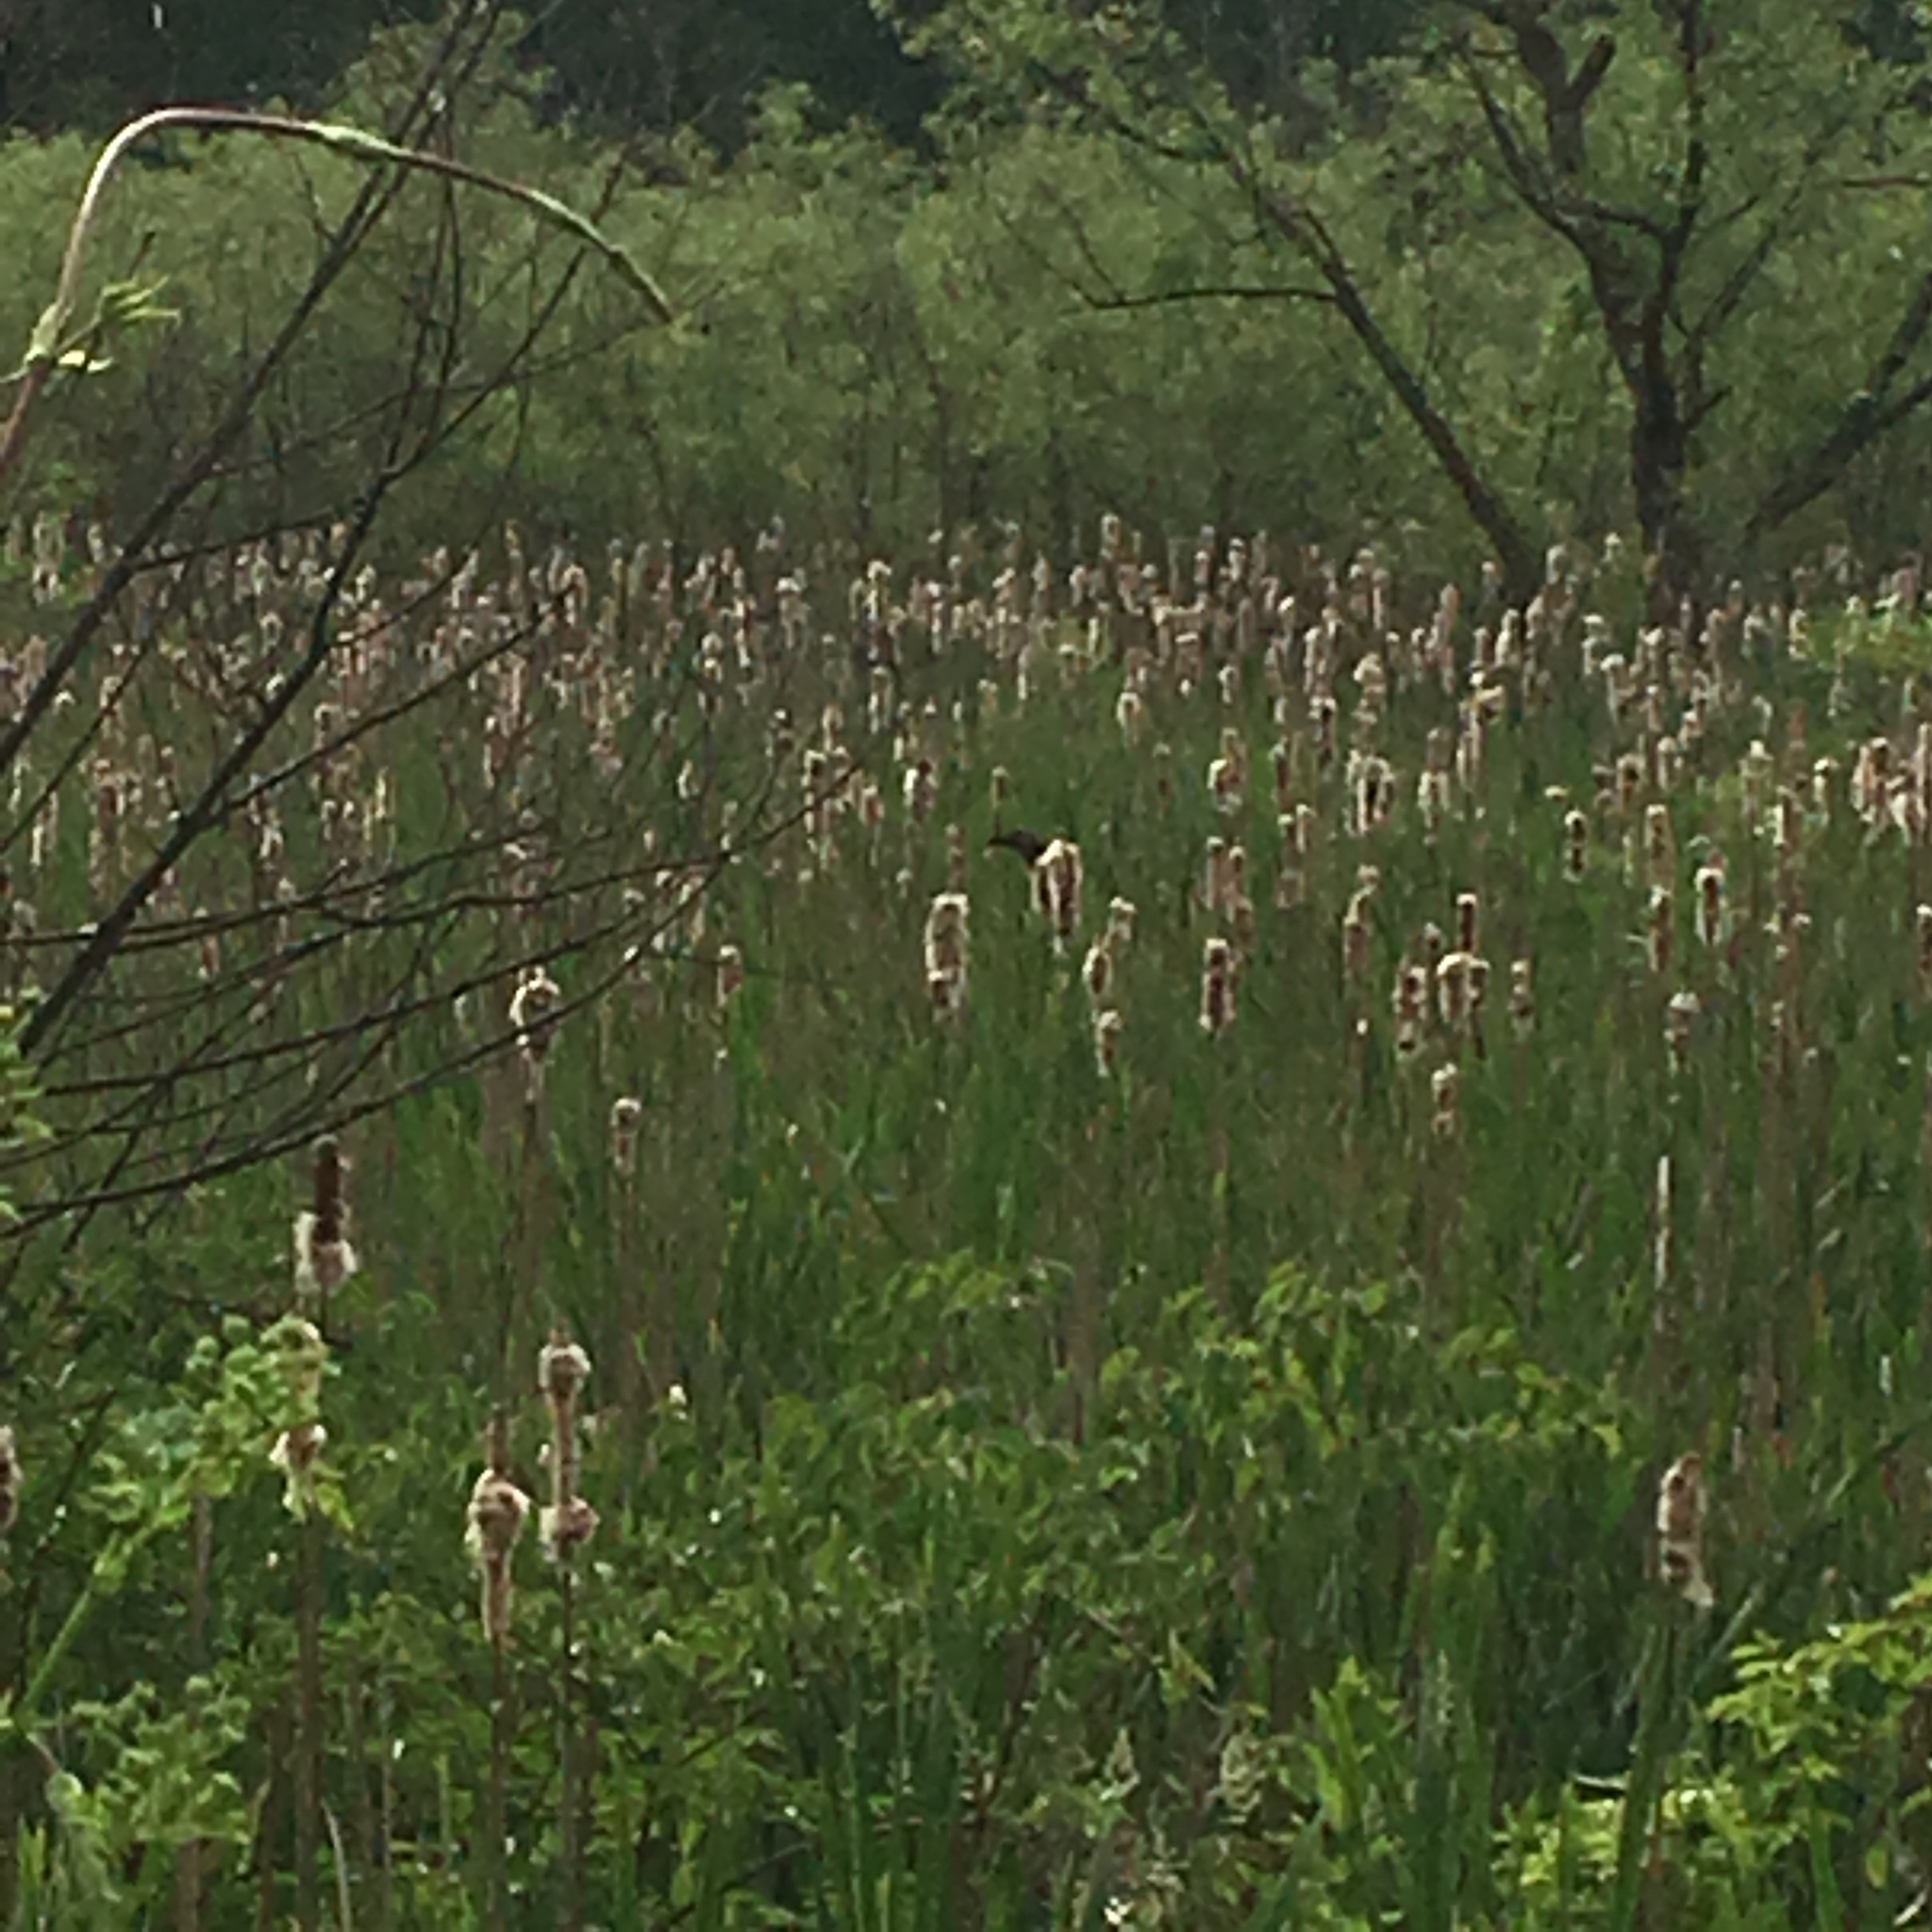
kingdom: Animalia
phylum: Chordata
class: Aves
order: Passeriformes
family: Icteridae
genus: Agelaius
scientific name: Agelaius phoeniceus
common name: Red-winged blackbird
